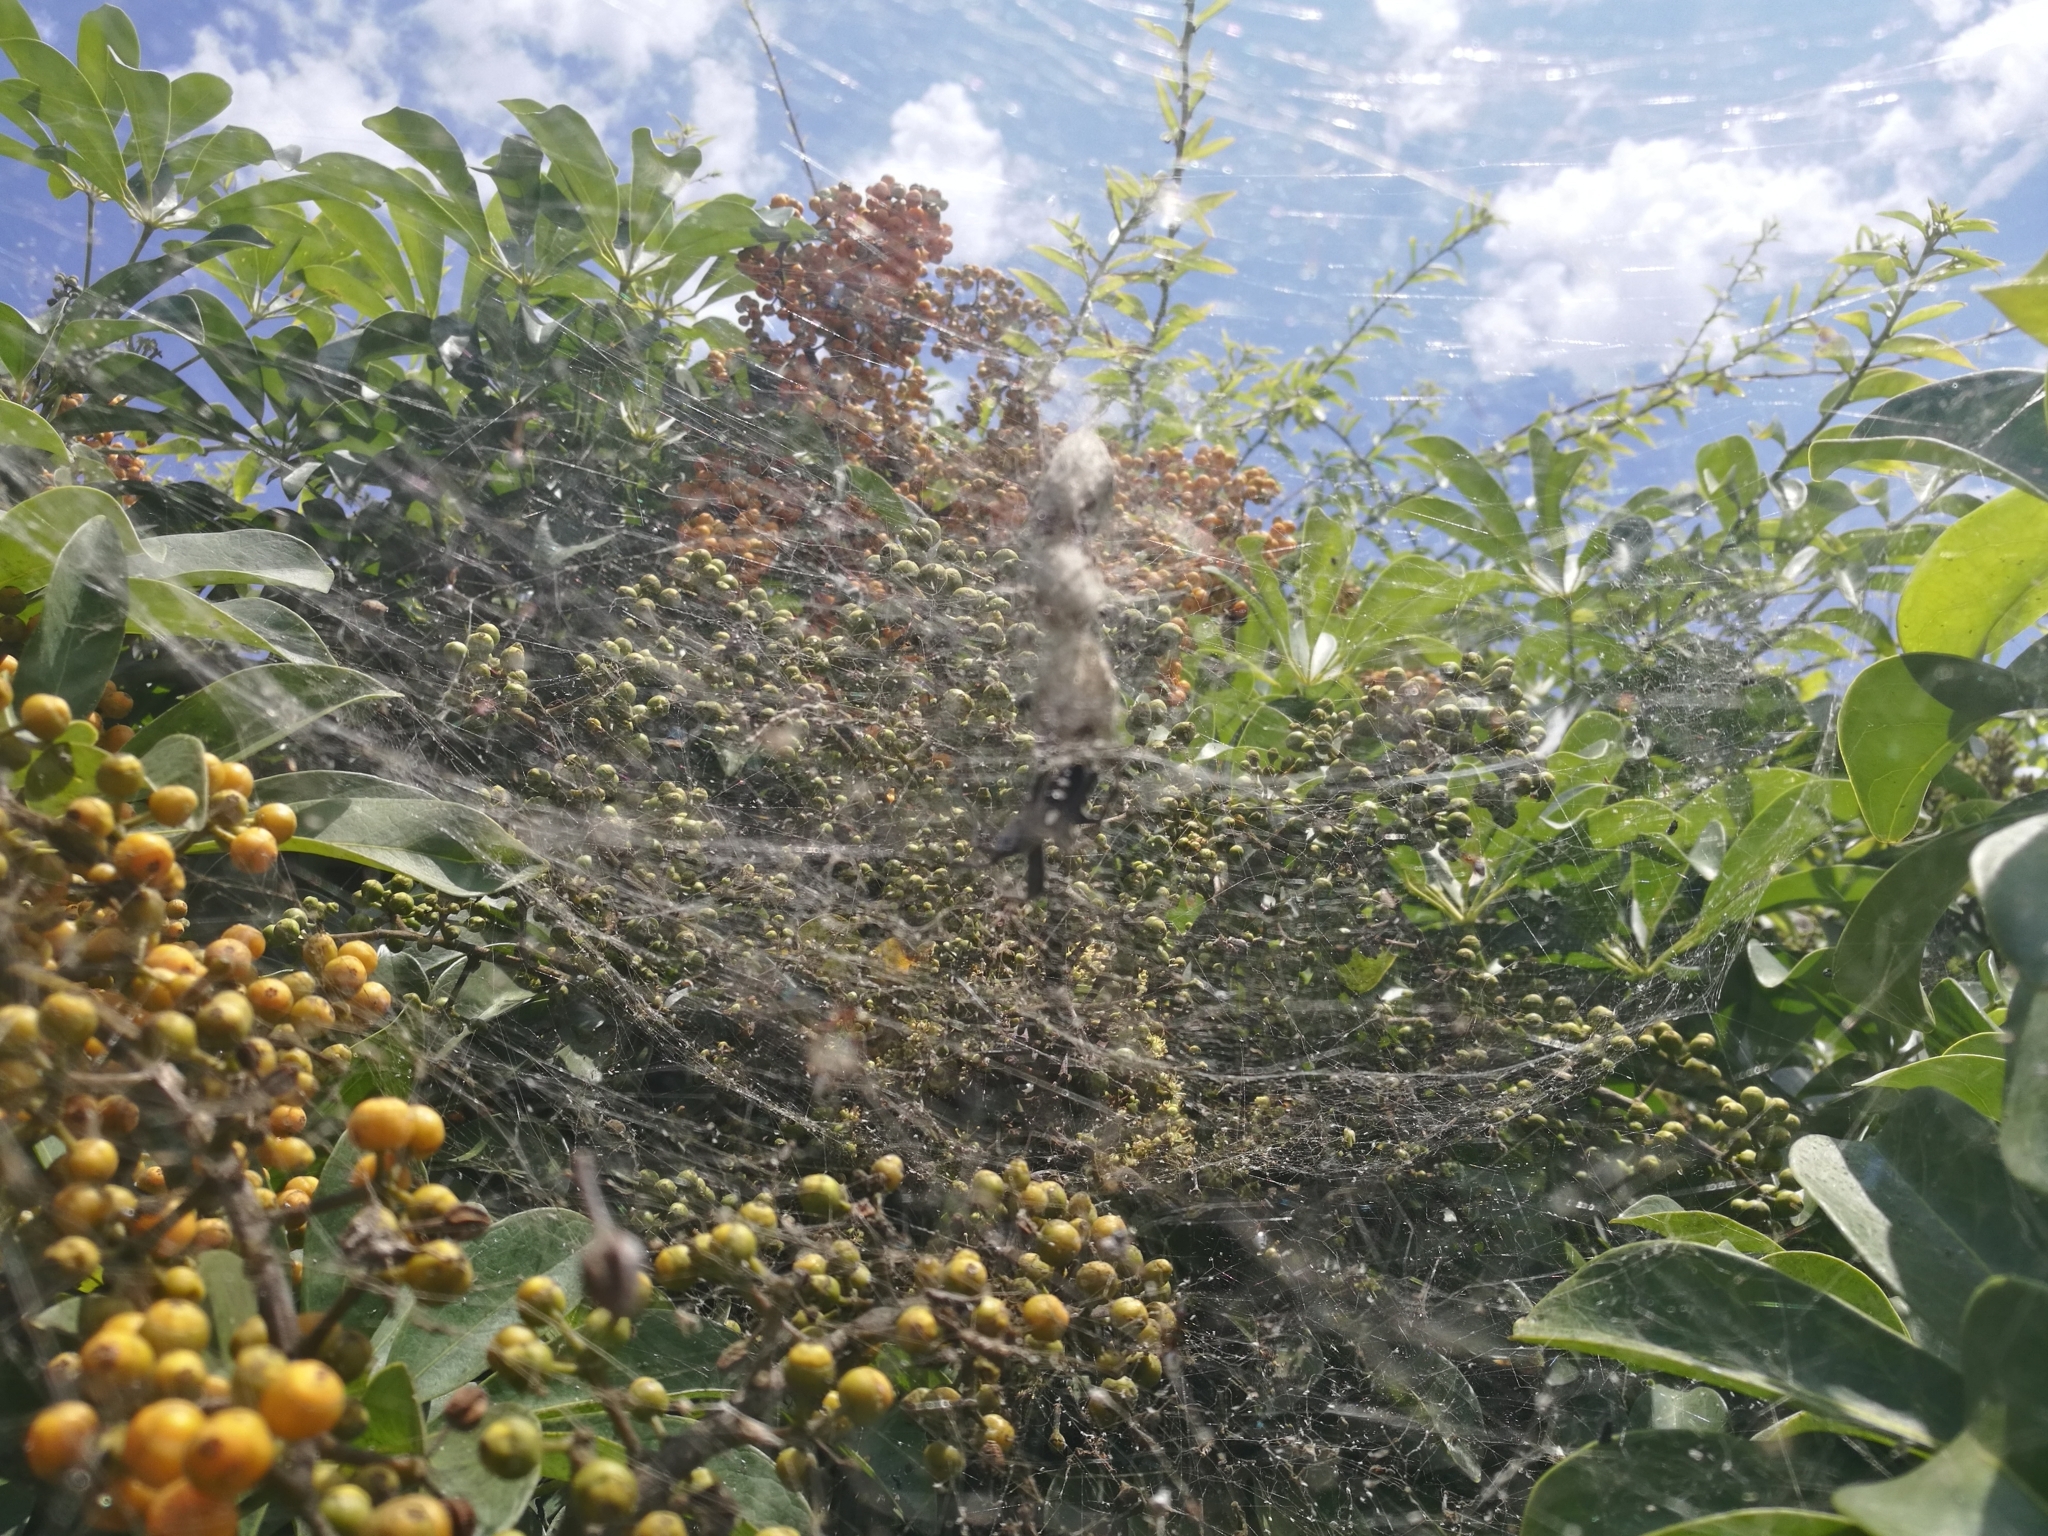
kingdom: Animalia
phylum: Arthropoda
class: Arachnida
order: Araneae
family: Araneidae
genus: Cyrtophora
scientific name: Cyrtophora citricola
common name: Orb weavers
